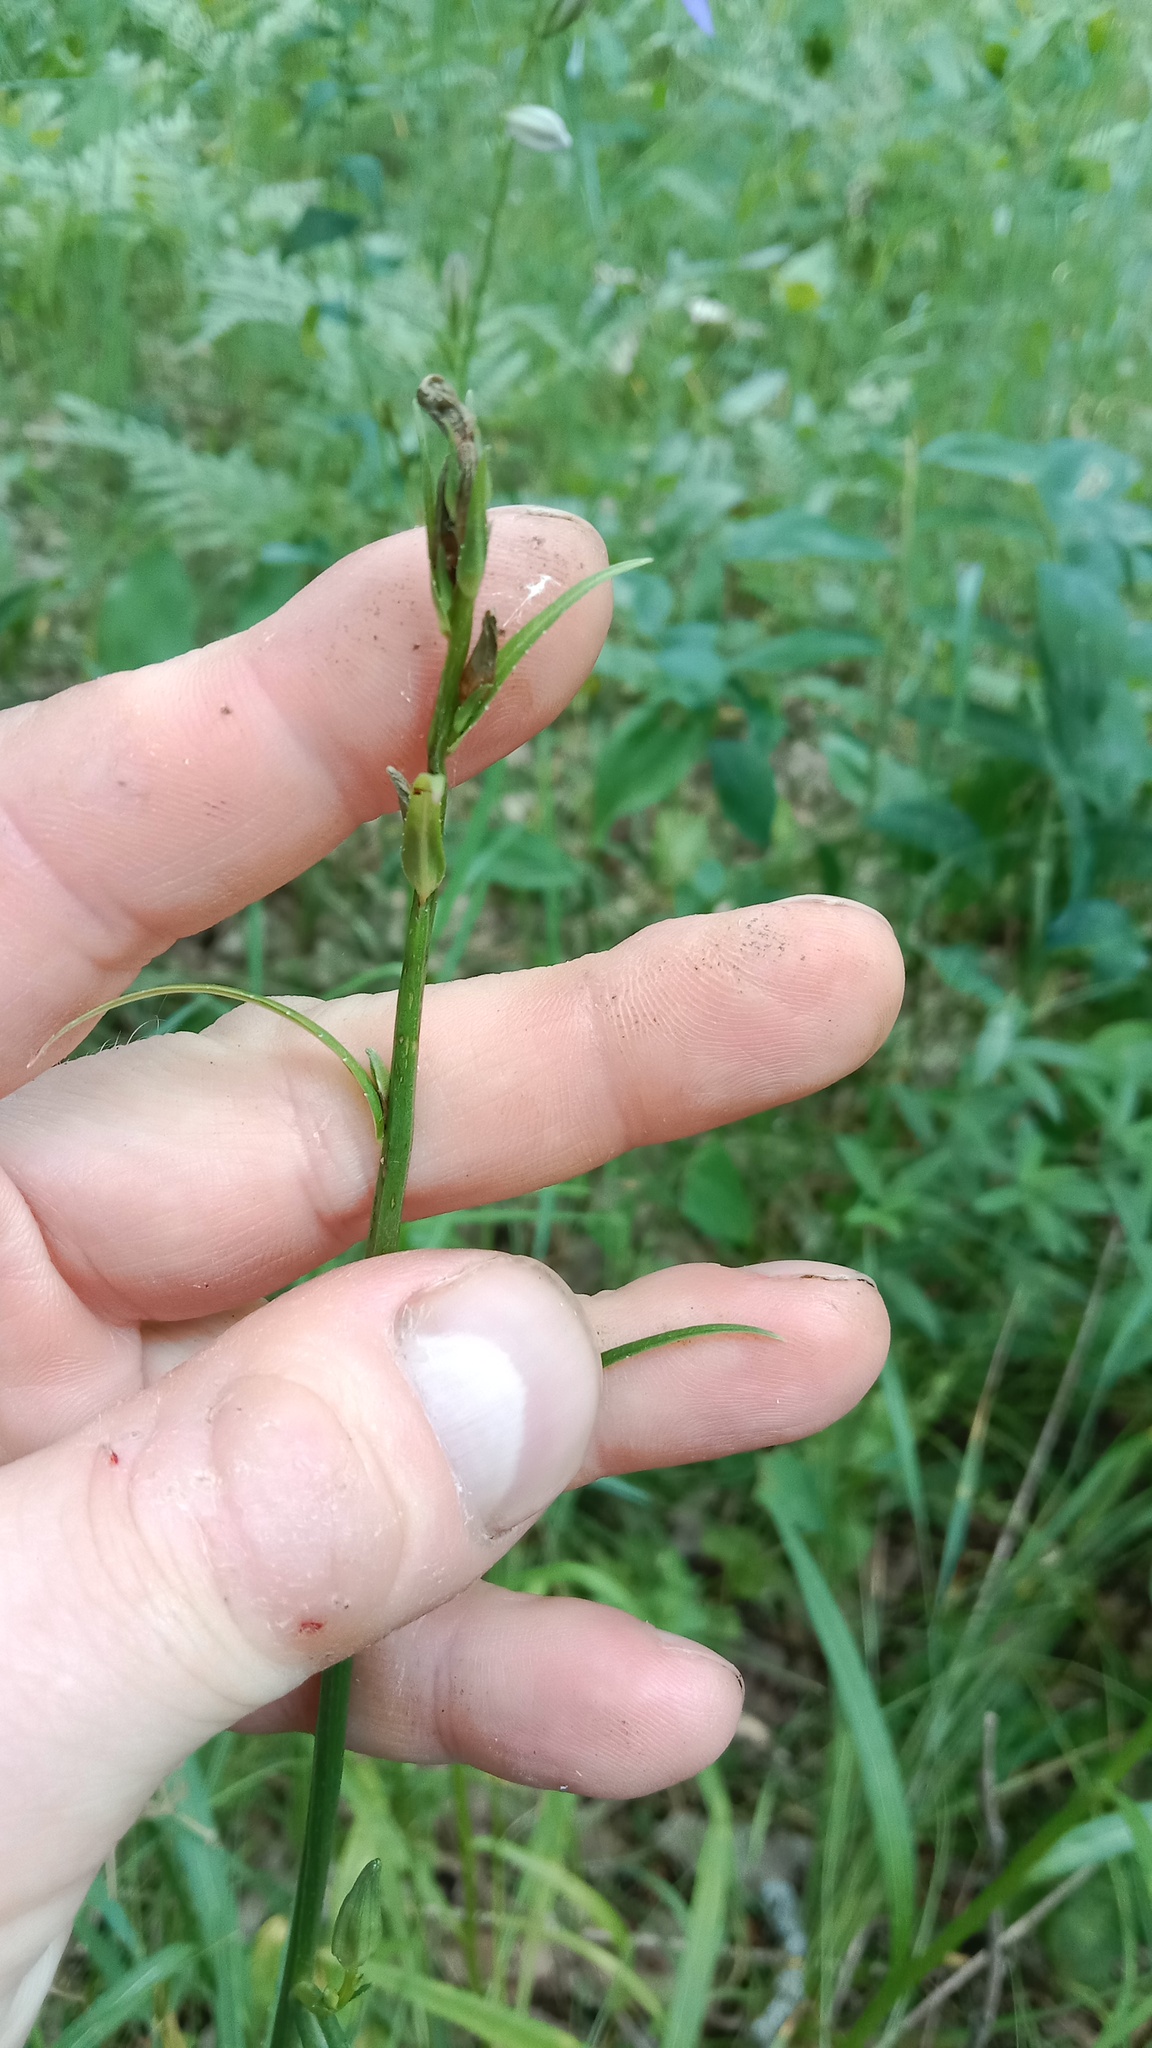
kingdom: Plantae
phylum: Tracheophyta
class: Magnoliopsida
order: Asterales
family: Campanulaceae
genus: Campanula
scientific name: Campanula persicifolia
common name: Peach-leaved bellflower
